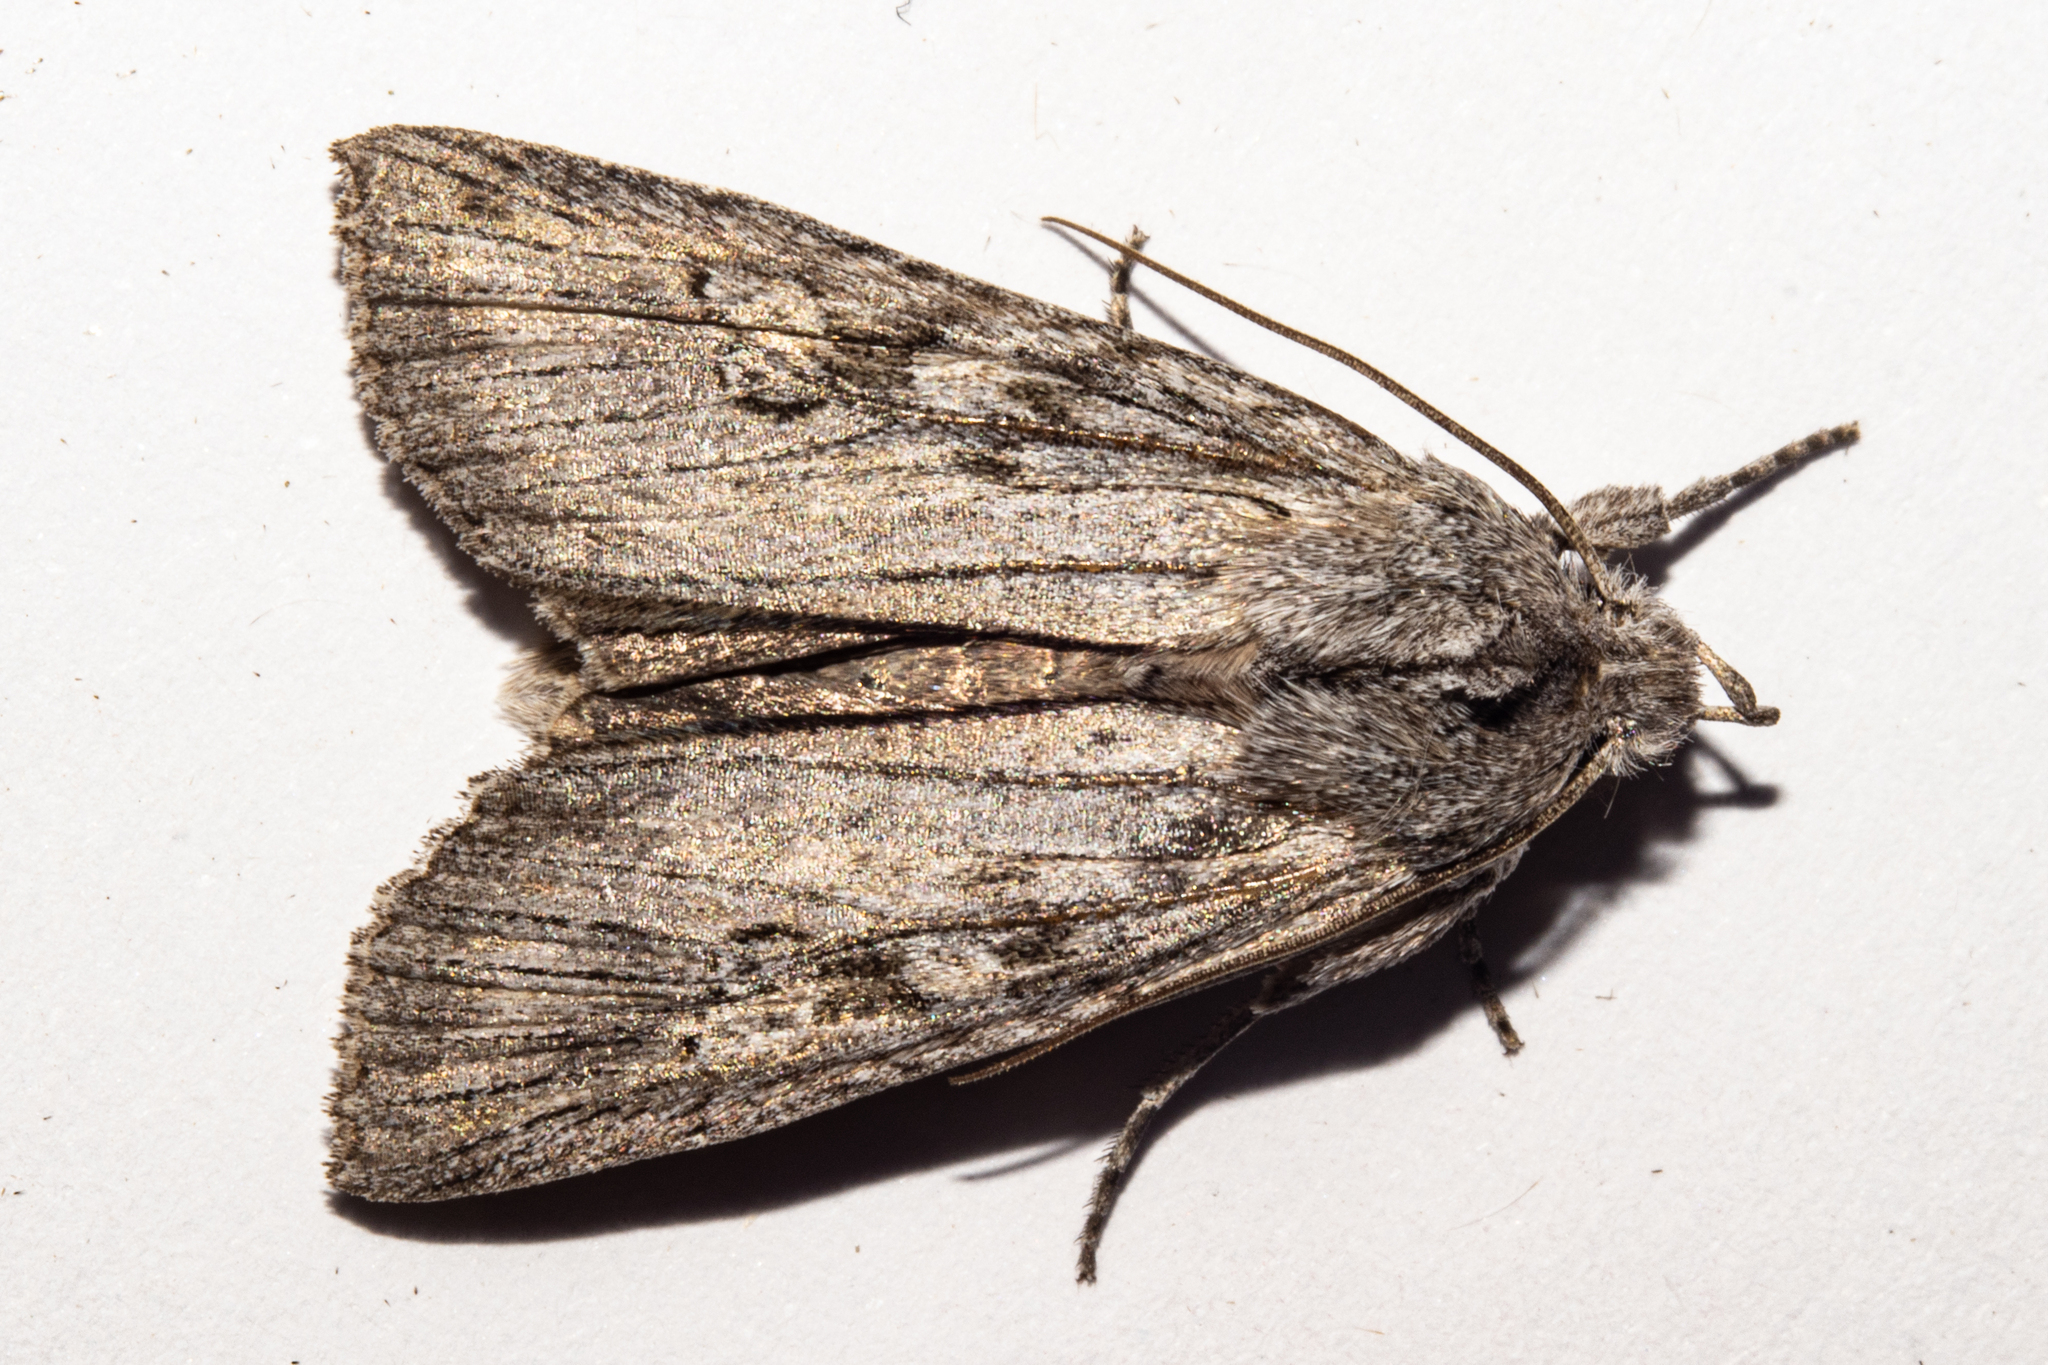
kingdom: Animalia
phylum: Arthropoda
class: Insecta
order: Lepidoptera
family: Noctuidae
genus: Physetica
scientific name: Physetica phricias
